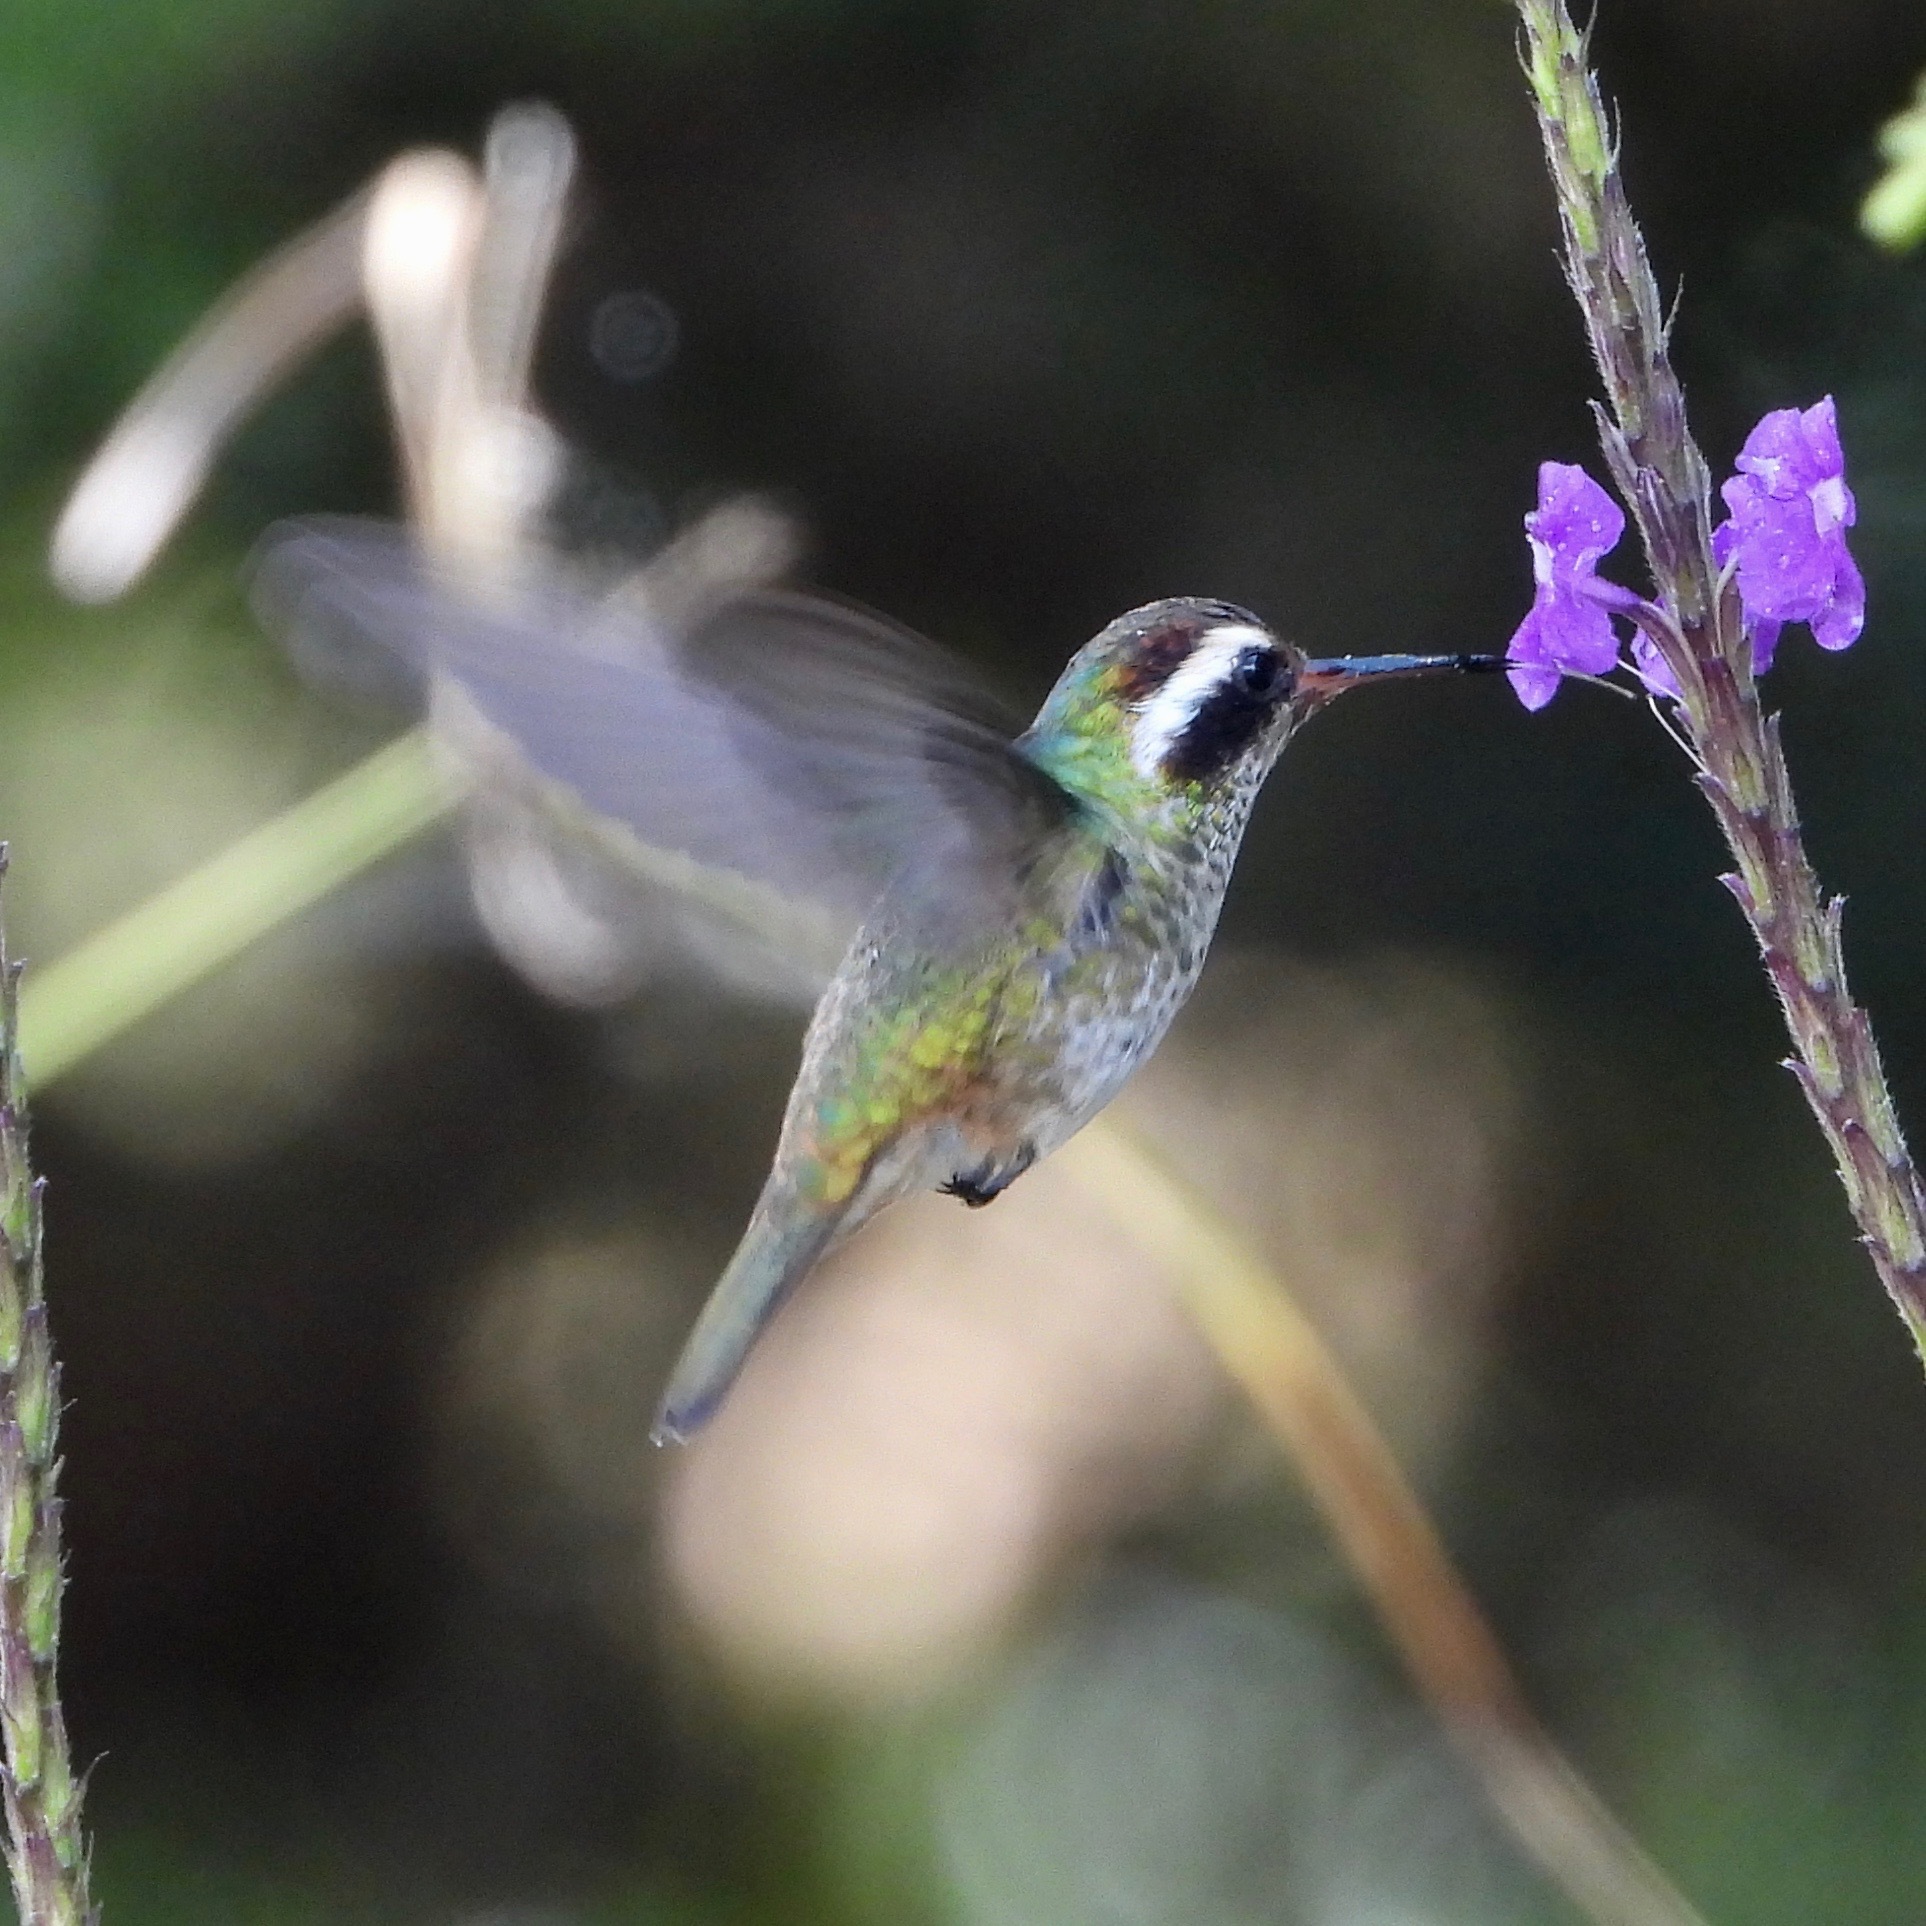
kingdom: Animalia
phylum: Chordata
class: Aves
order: Apodiformes
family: Trochilidae
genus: Basilinna
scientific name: Basilinna leucotis
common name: White-eared hummingbird
